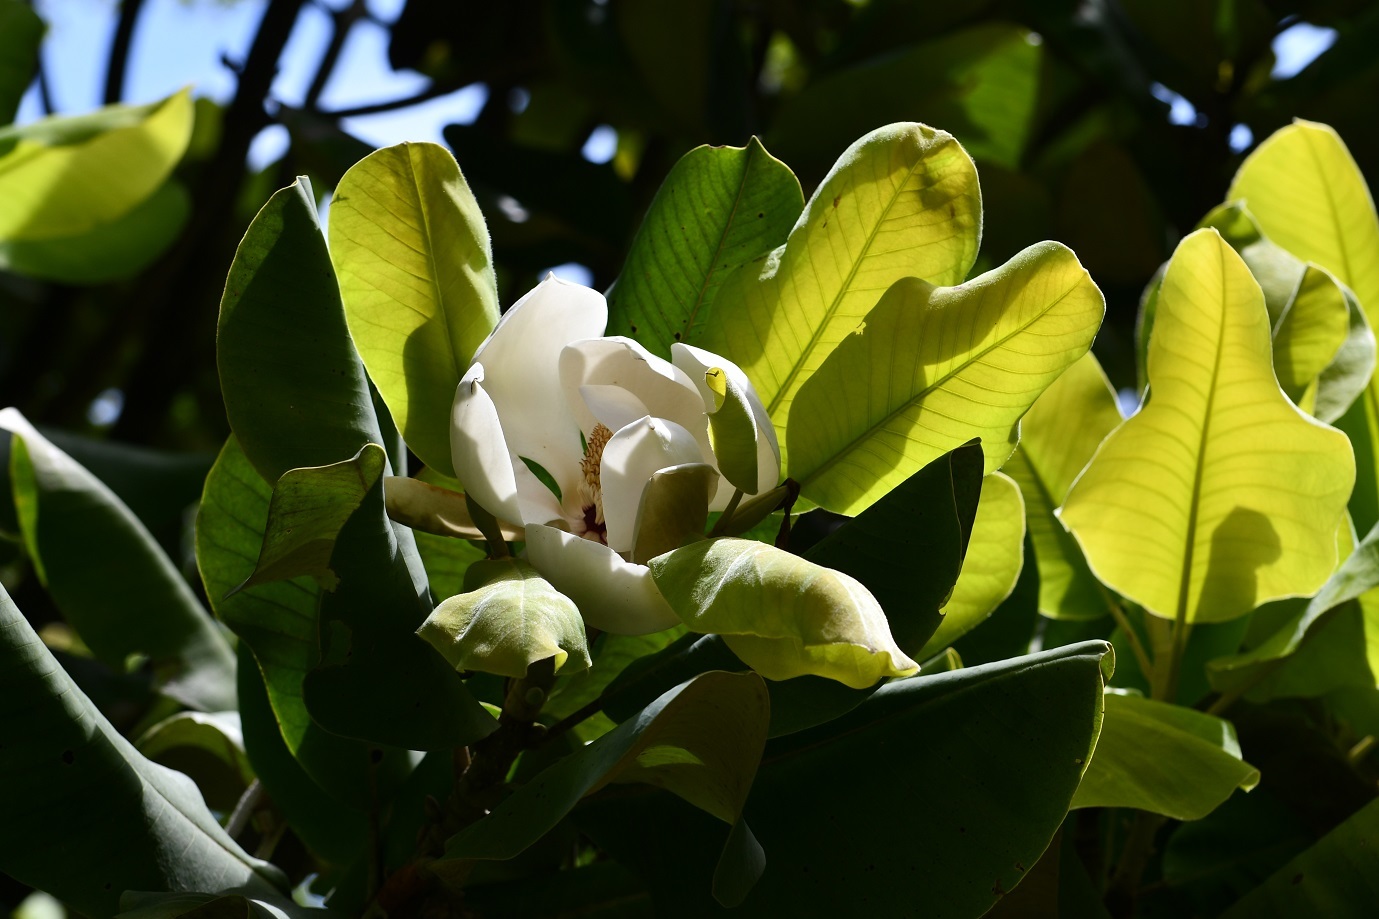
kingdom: Plantae
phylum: Tracheophyta
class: Magnoliopsida
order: Magnoliales
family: Magnoliaceae
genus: Magnolia
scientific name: Magnolia sharpii
